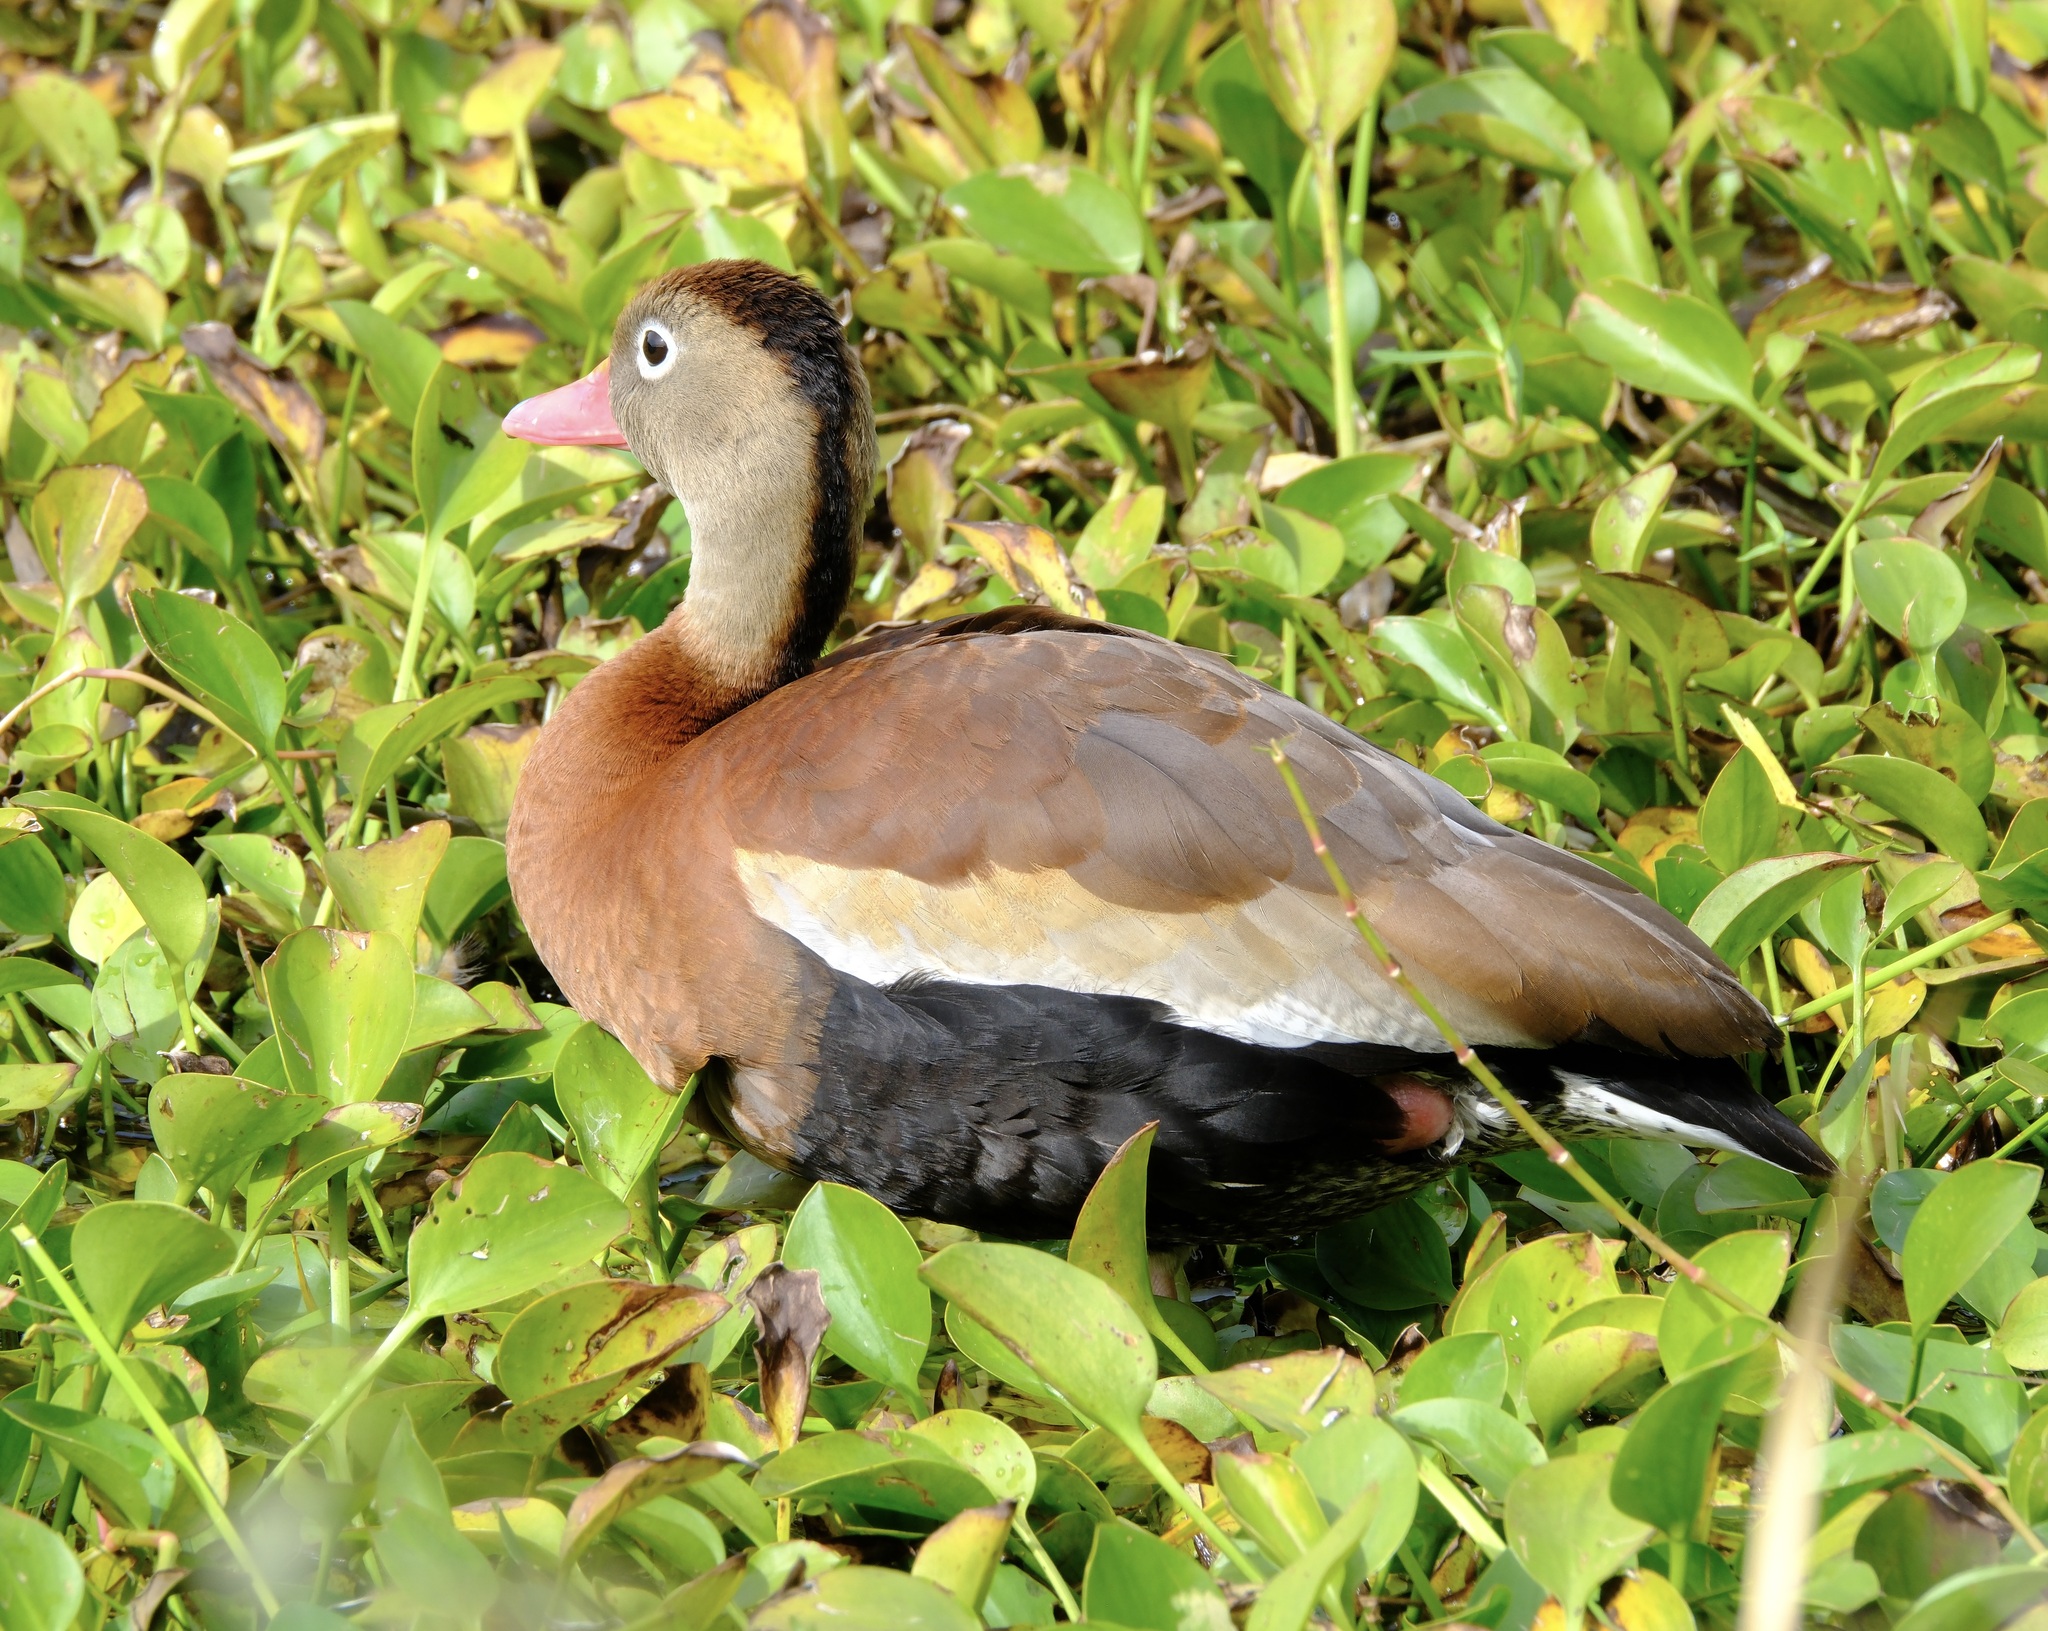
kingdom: Animalia
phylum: Chordata
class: Aves
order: Anseriformes
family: Anatidae
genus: Dendrocygna
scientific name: Dendrocygna autumnalis
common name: Black-bellied whistling duck
